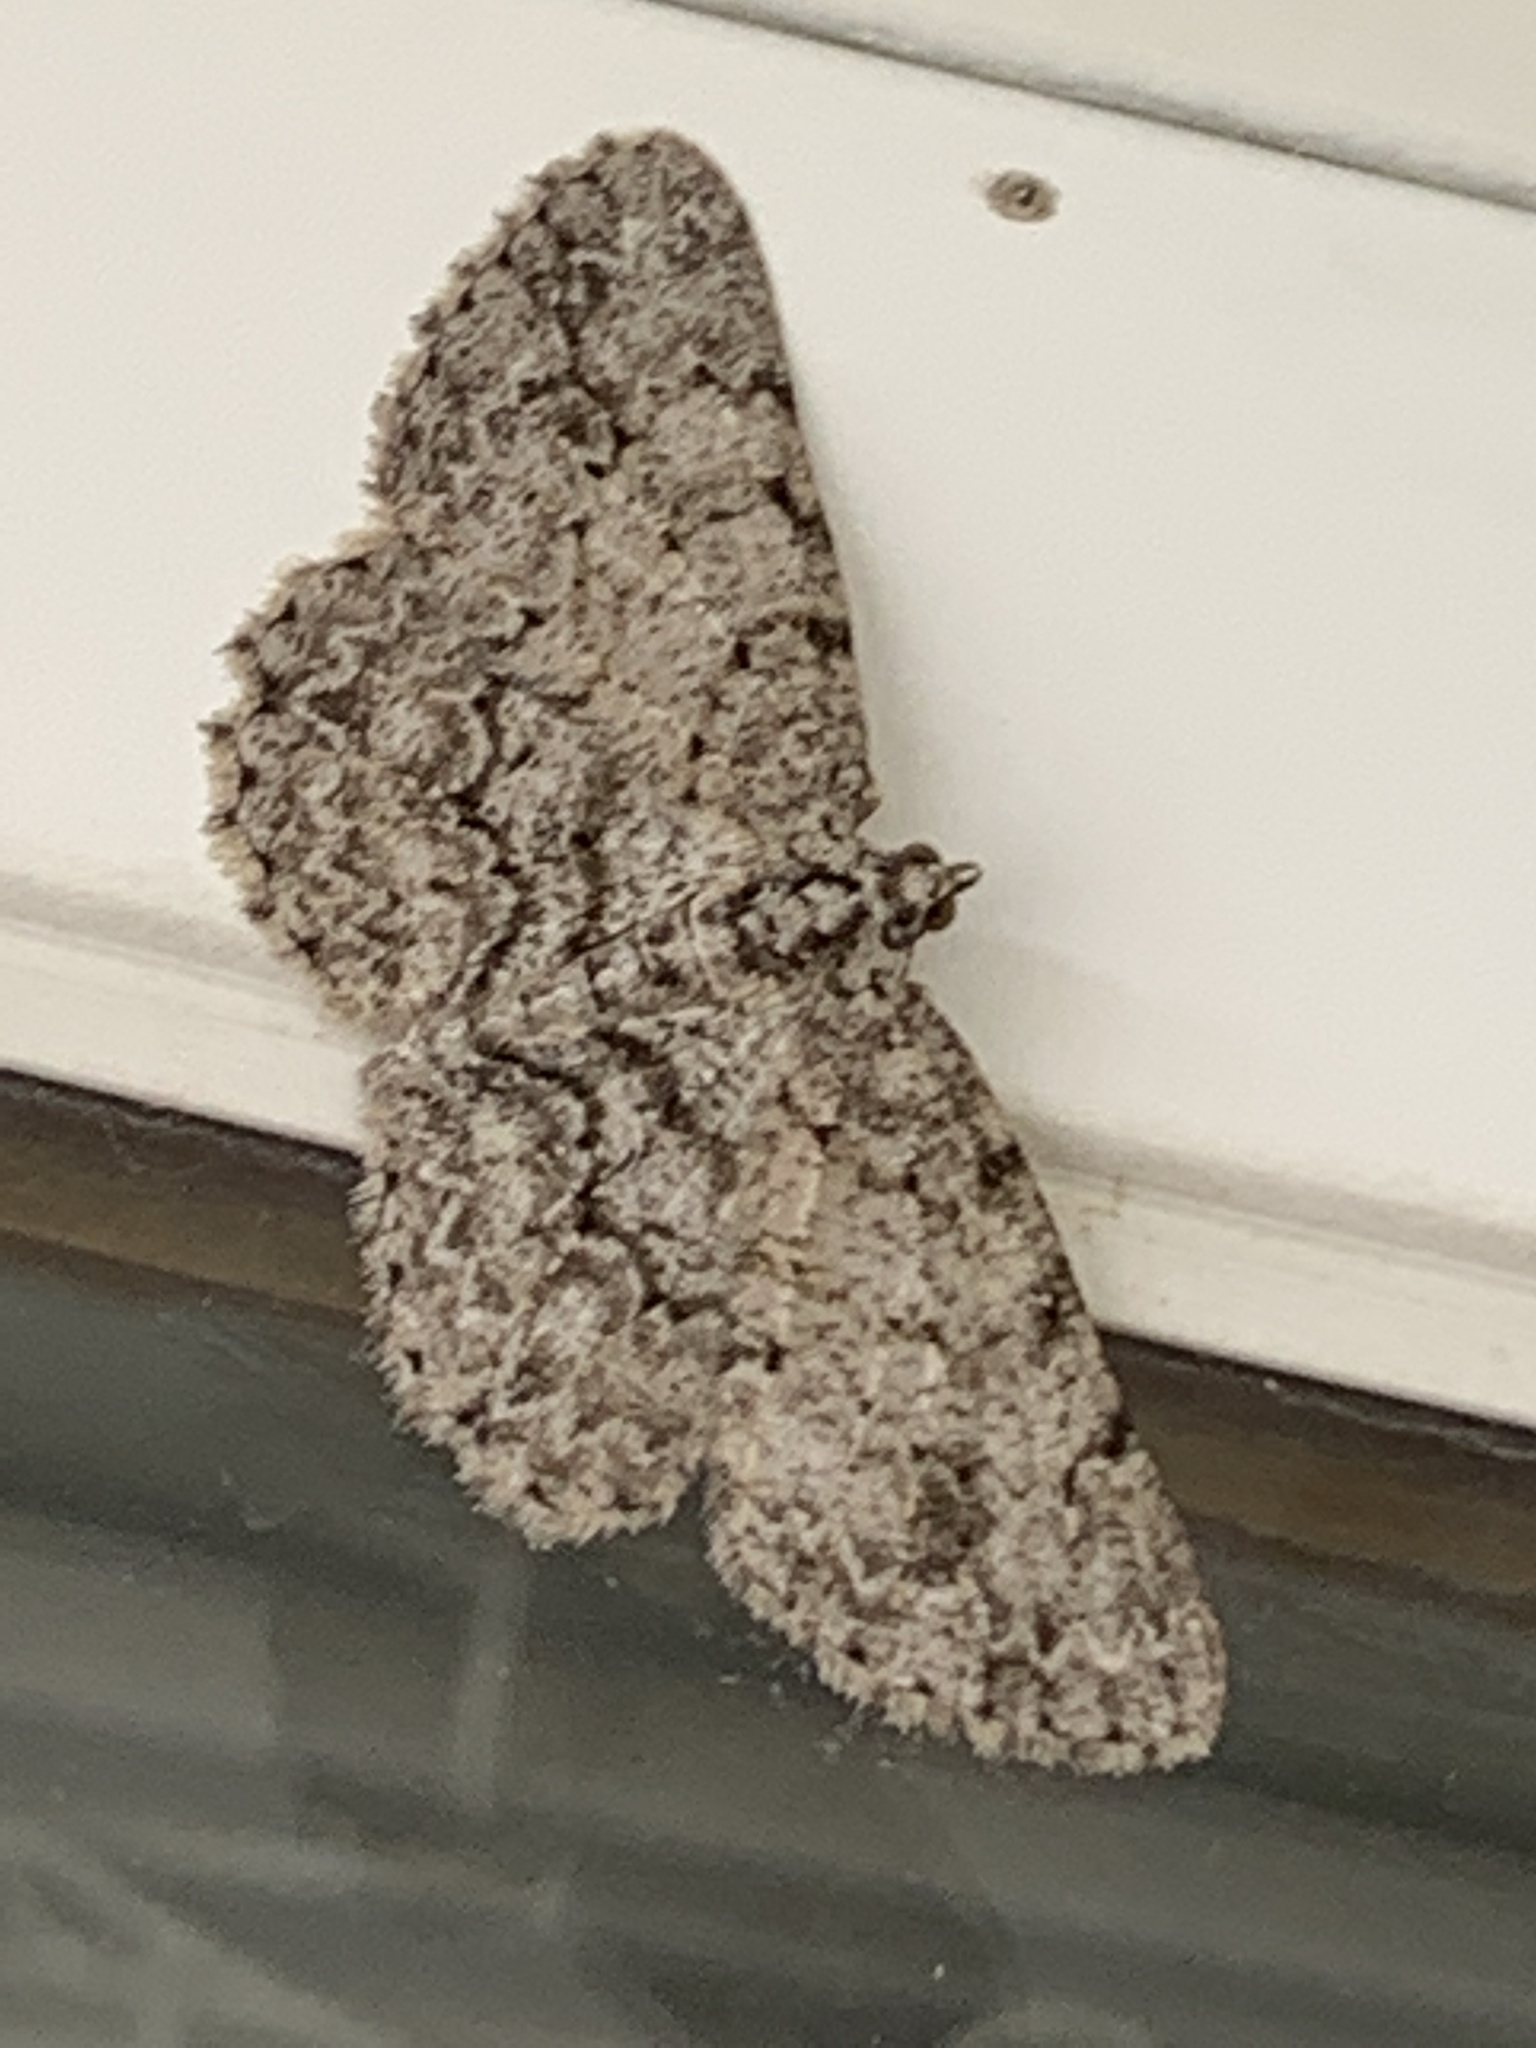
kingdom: Animalia
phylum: Arthropoda
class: Insecta
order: Lepidoptera
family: Geometridae
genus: Protoboarmia
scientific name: Protoboarmia porcelaria
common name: Porcelain gray
